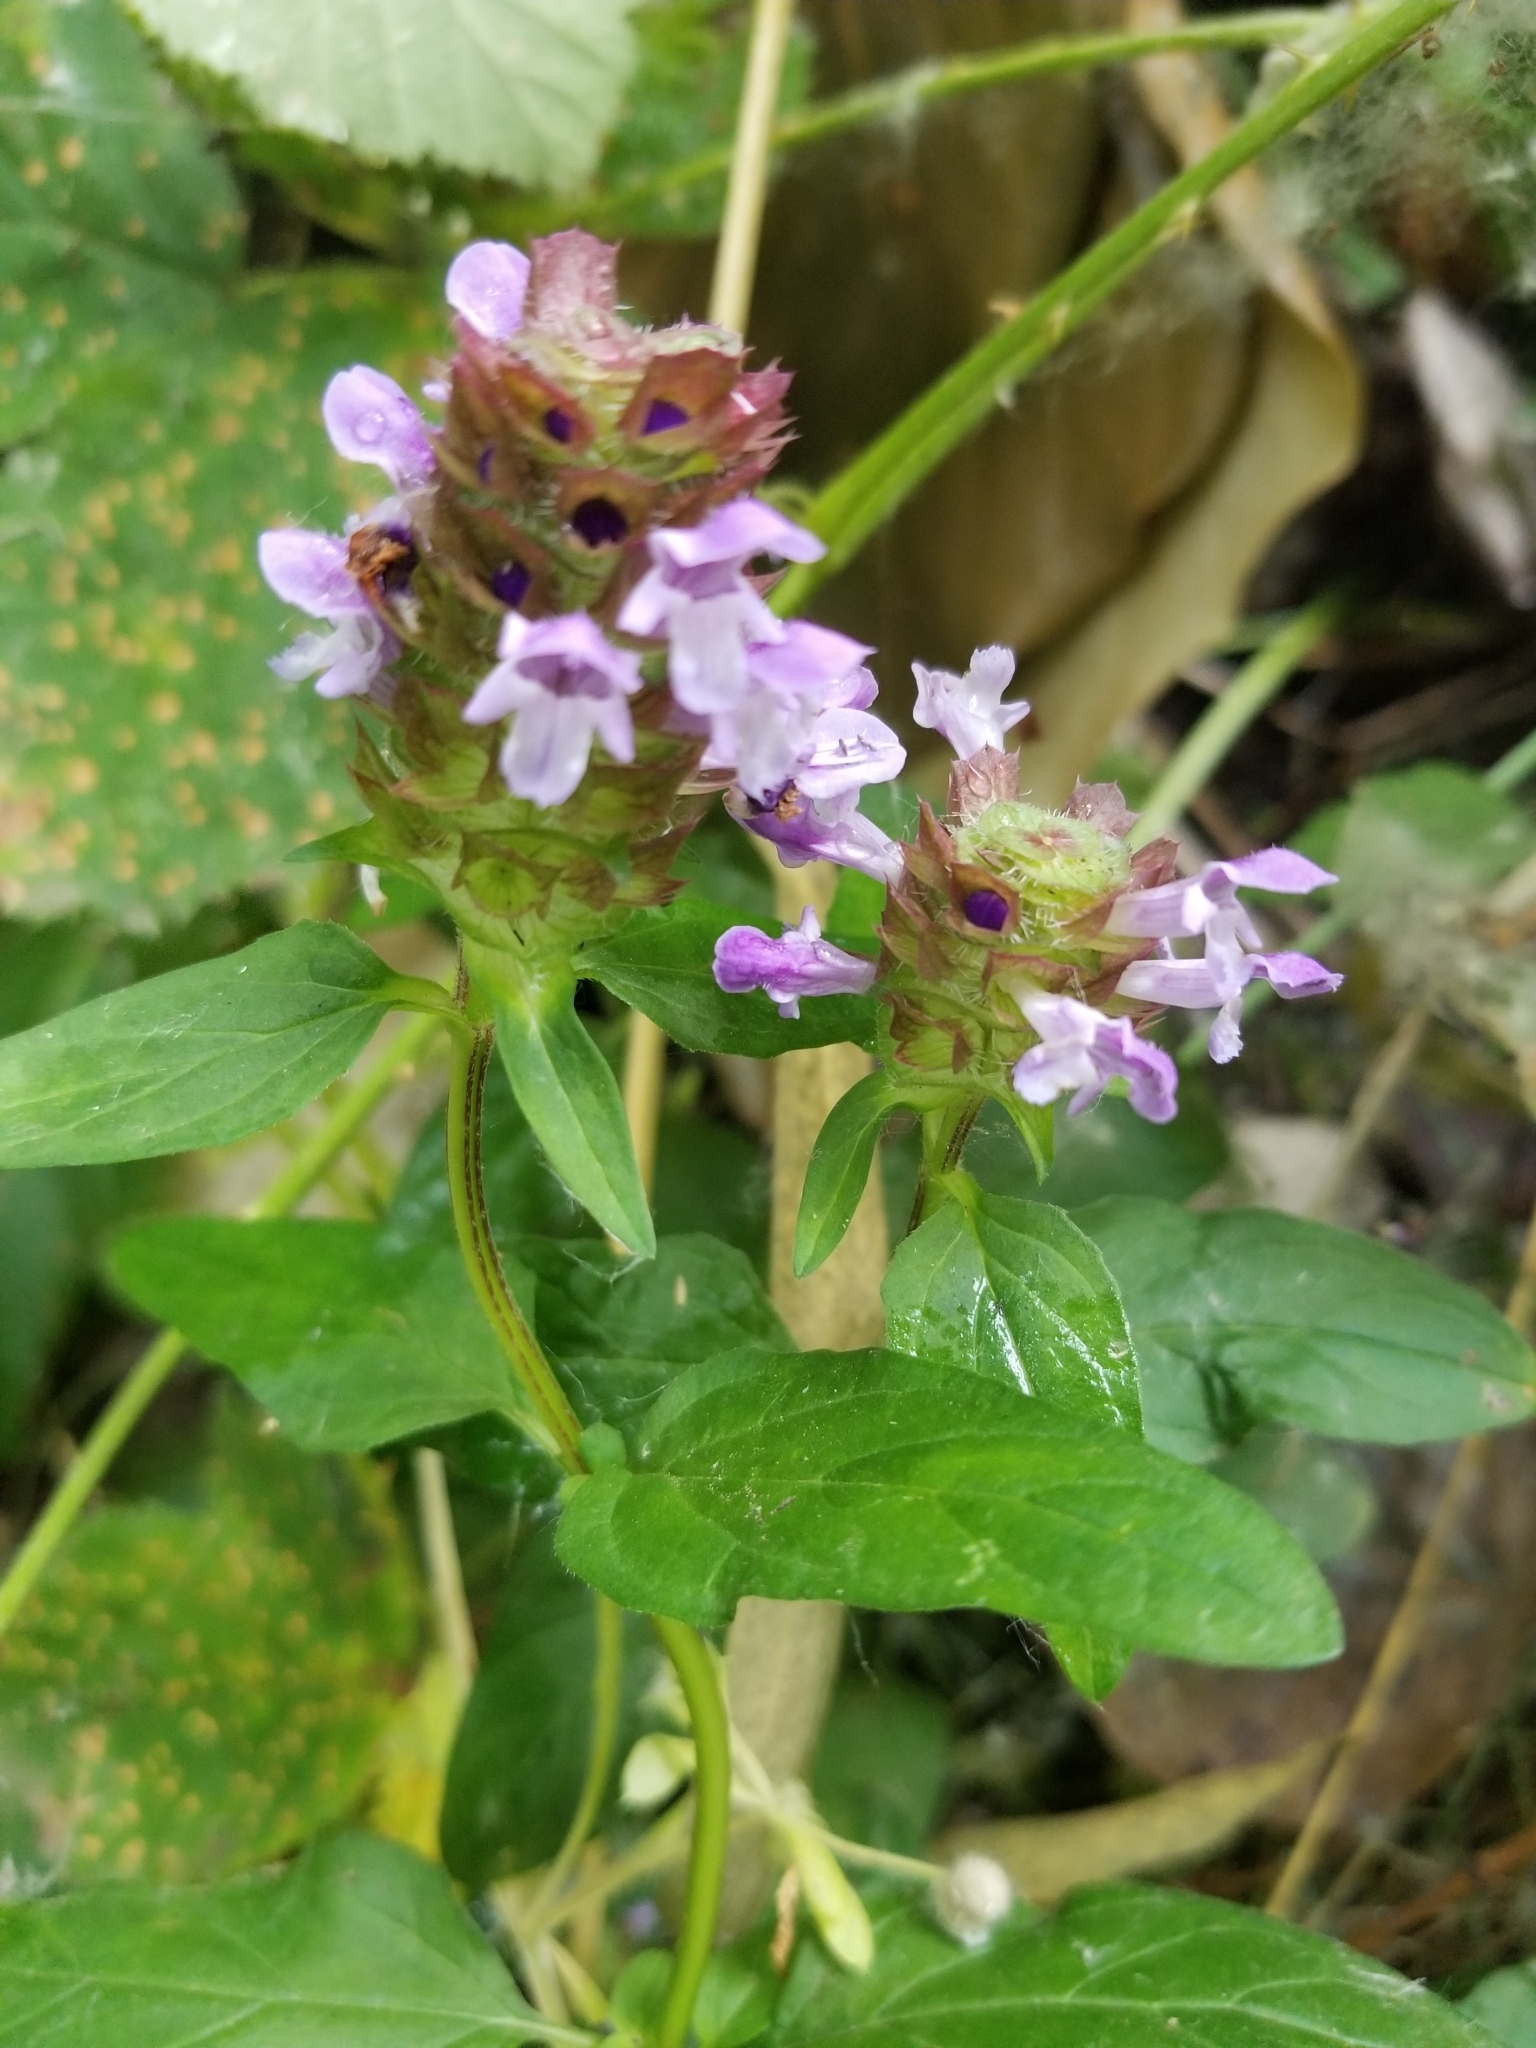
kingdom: Plantae
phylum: Tracheophyta
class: Magnoliopsida
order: Lamiales
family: Lamiaceae
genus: Prunella
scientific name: Prunella vulgaris
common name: Heal-all
